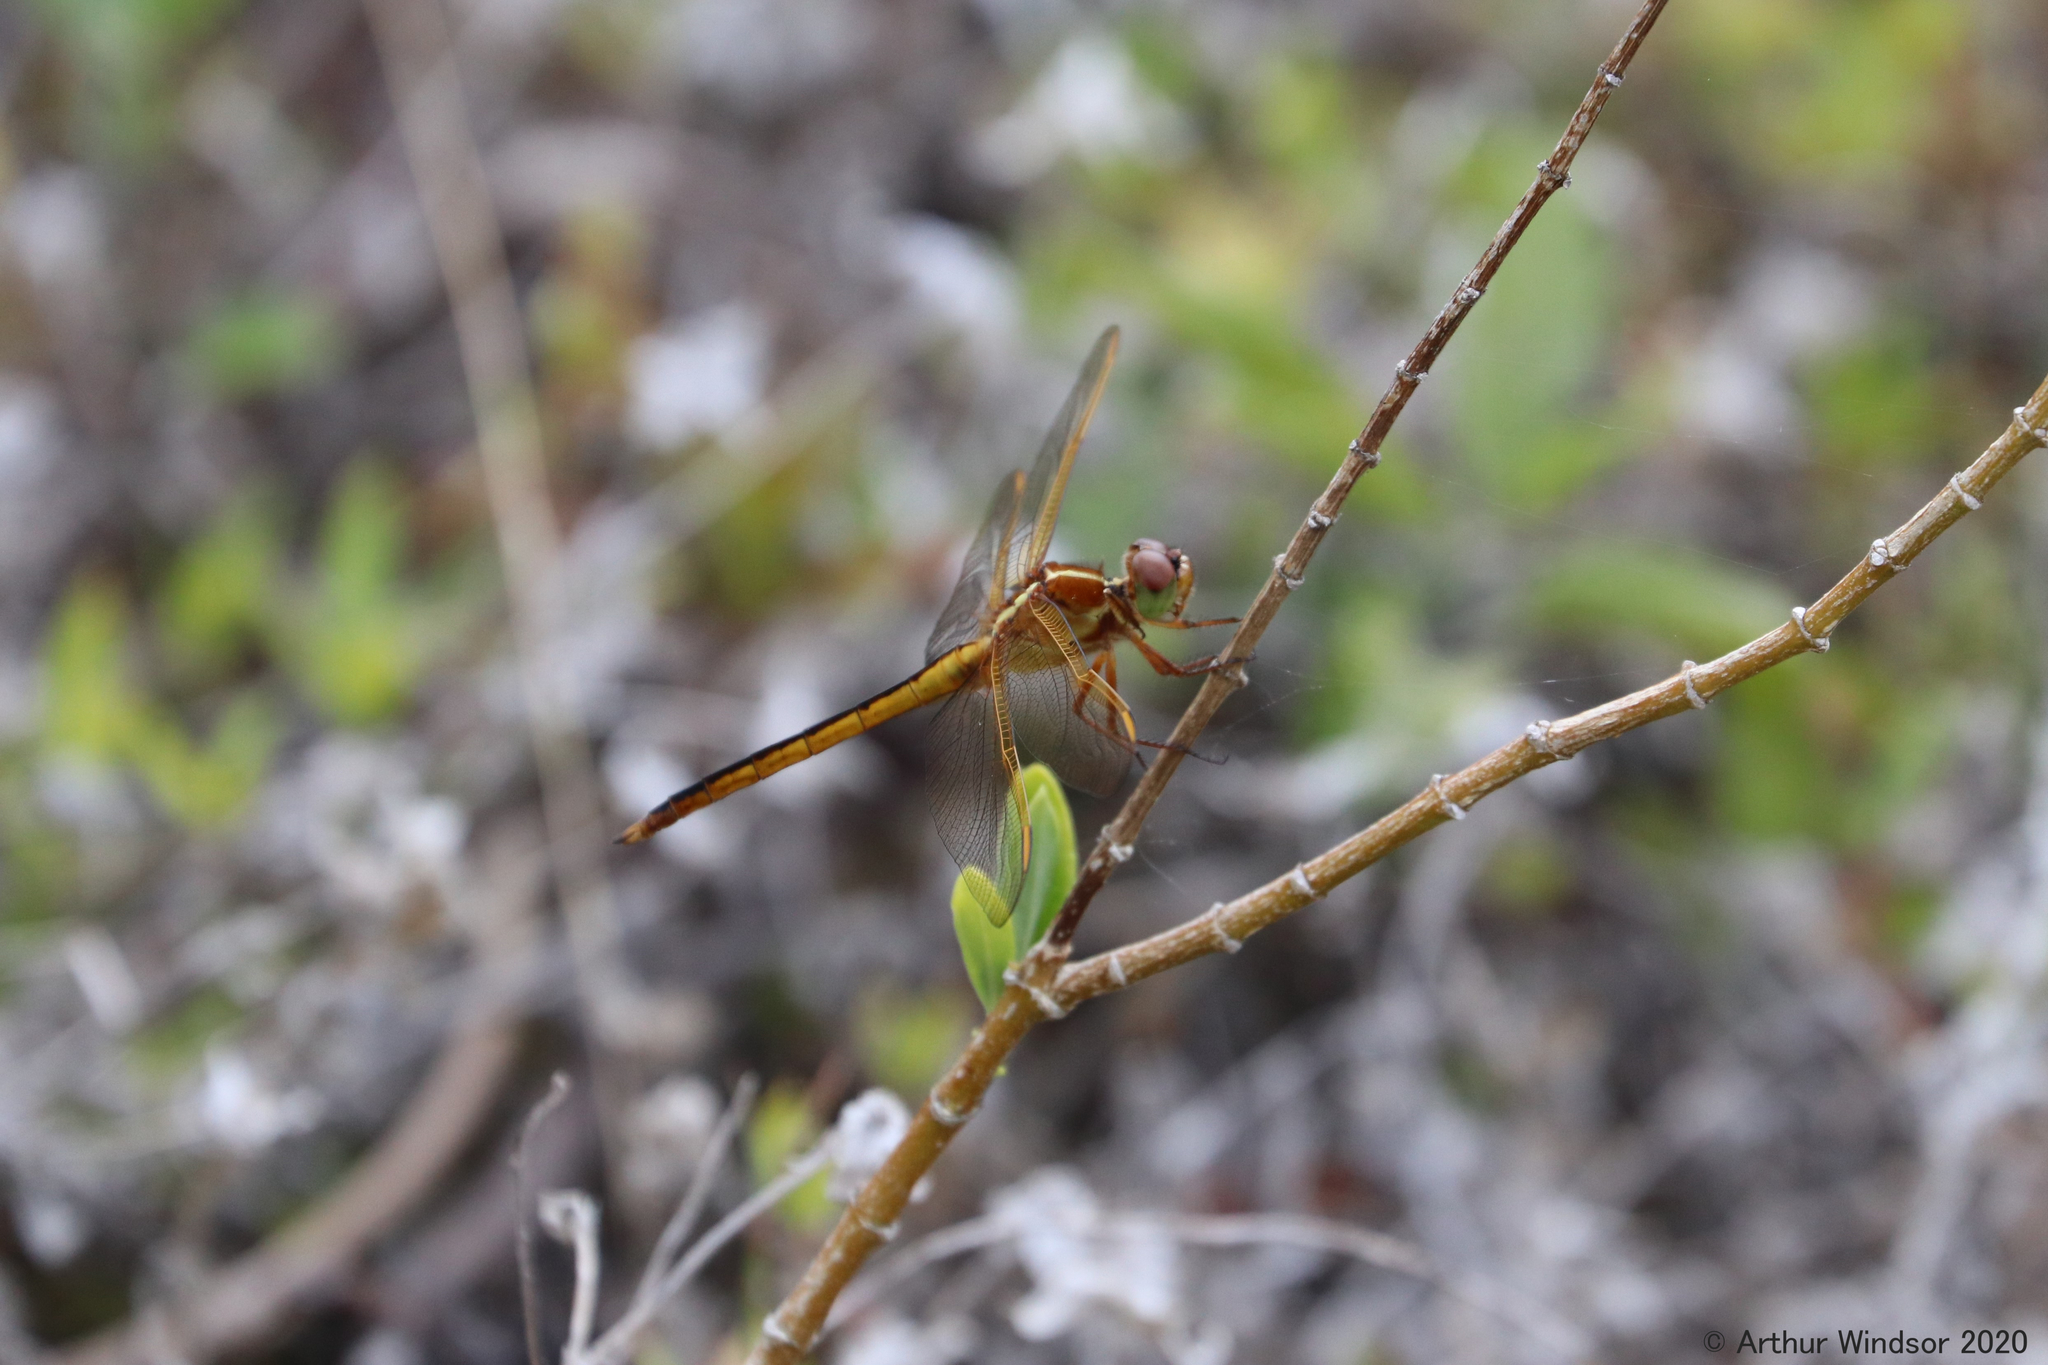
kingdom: Animalia
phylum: Arthropoda
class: Insecta
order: Odonata
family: Libellulidae
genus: Libellula
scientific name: Libellula needhami
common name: Needham's skimmer
